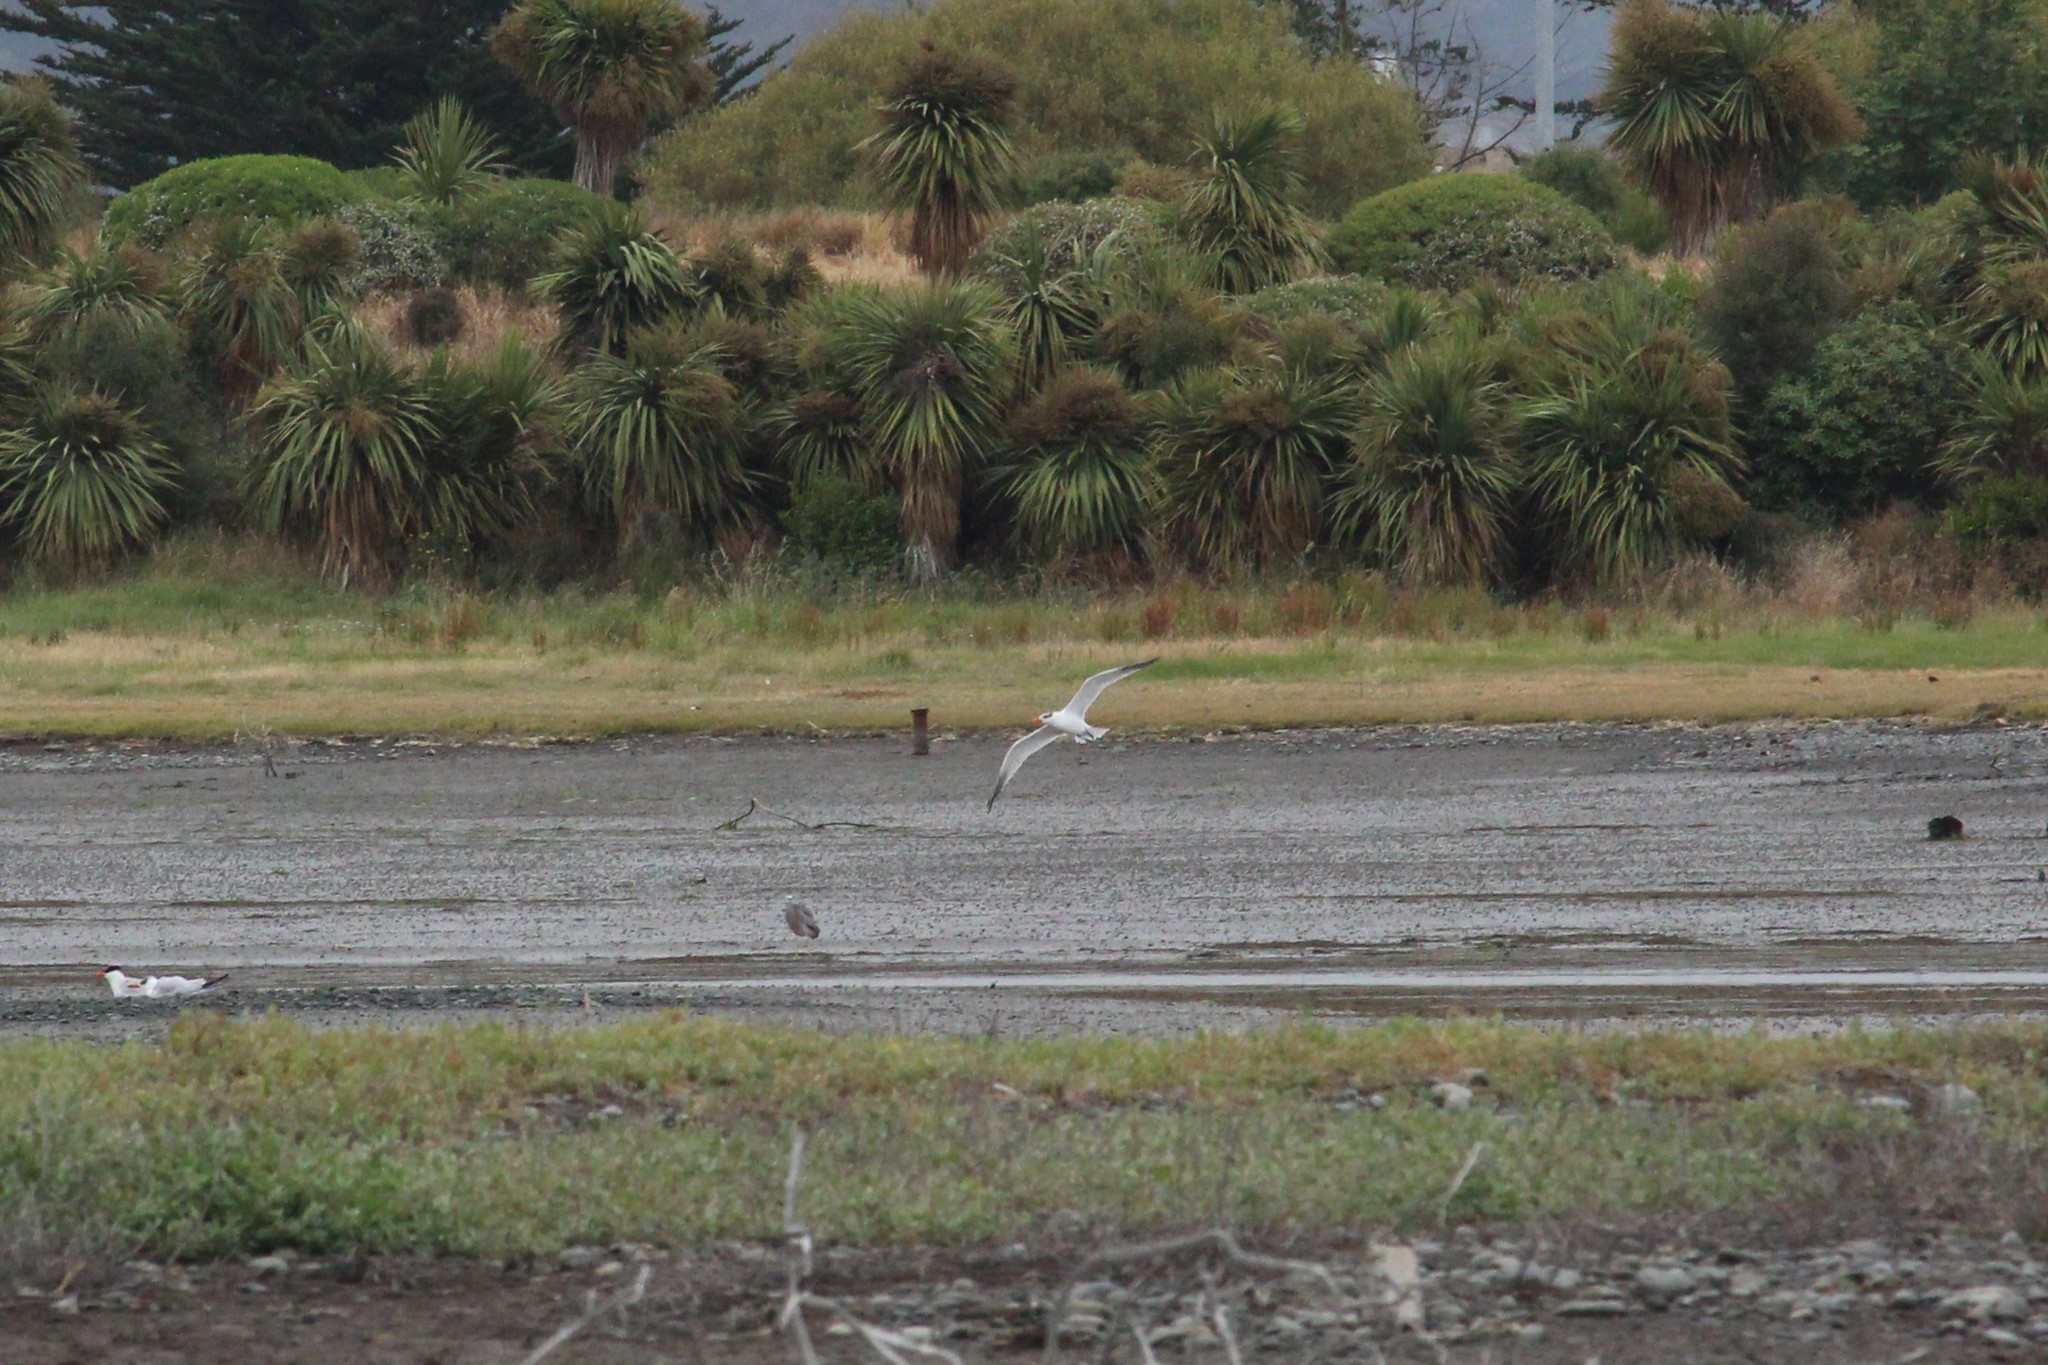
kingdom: Animalia
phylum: Chordata
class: Aves
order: Charadriiformes
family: Laridae
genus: Hydroprogne
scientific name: Hydroprogne caspia
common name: Caspian tern
